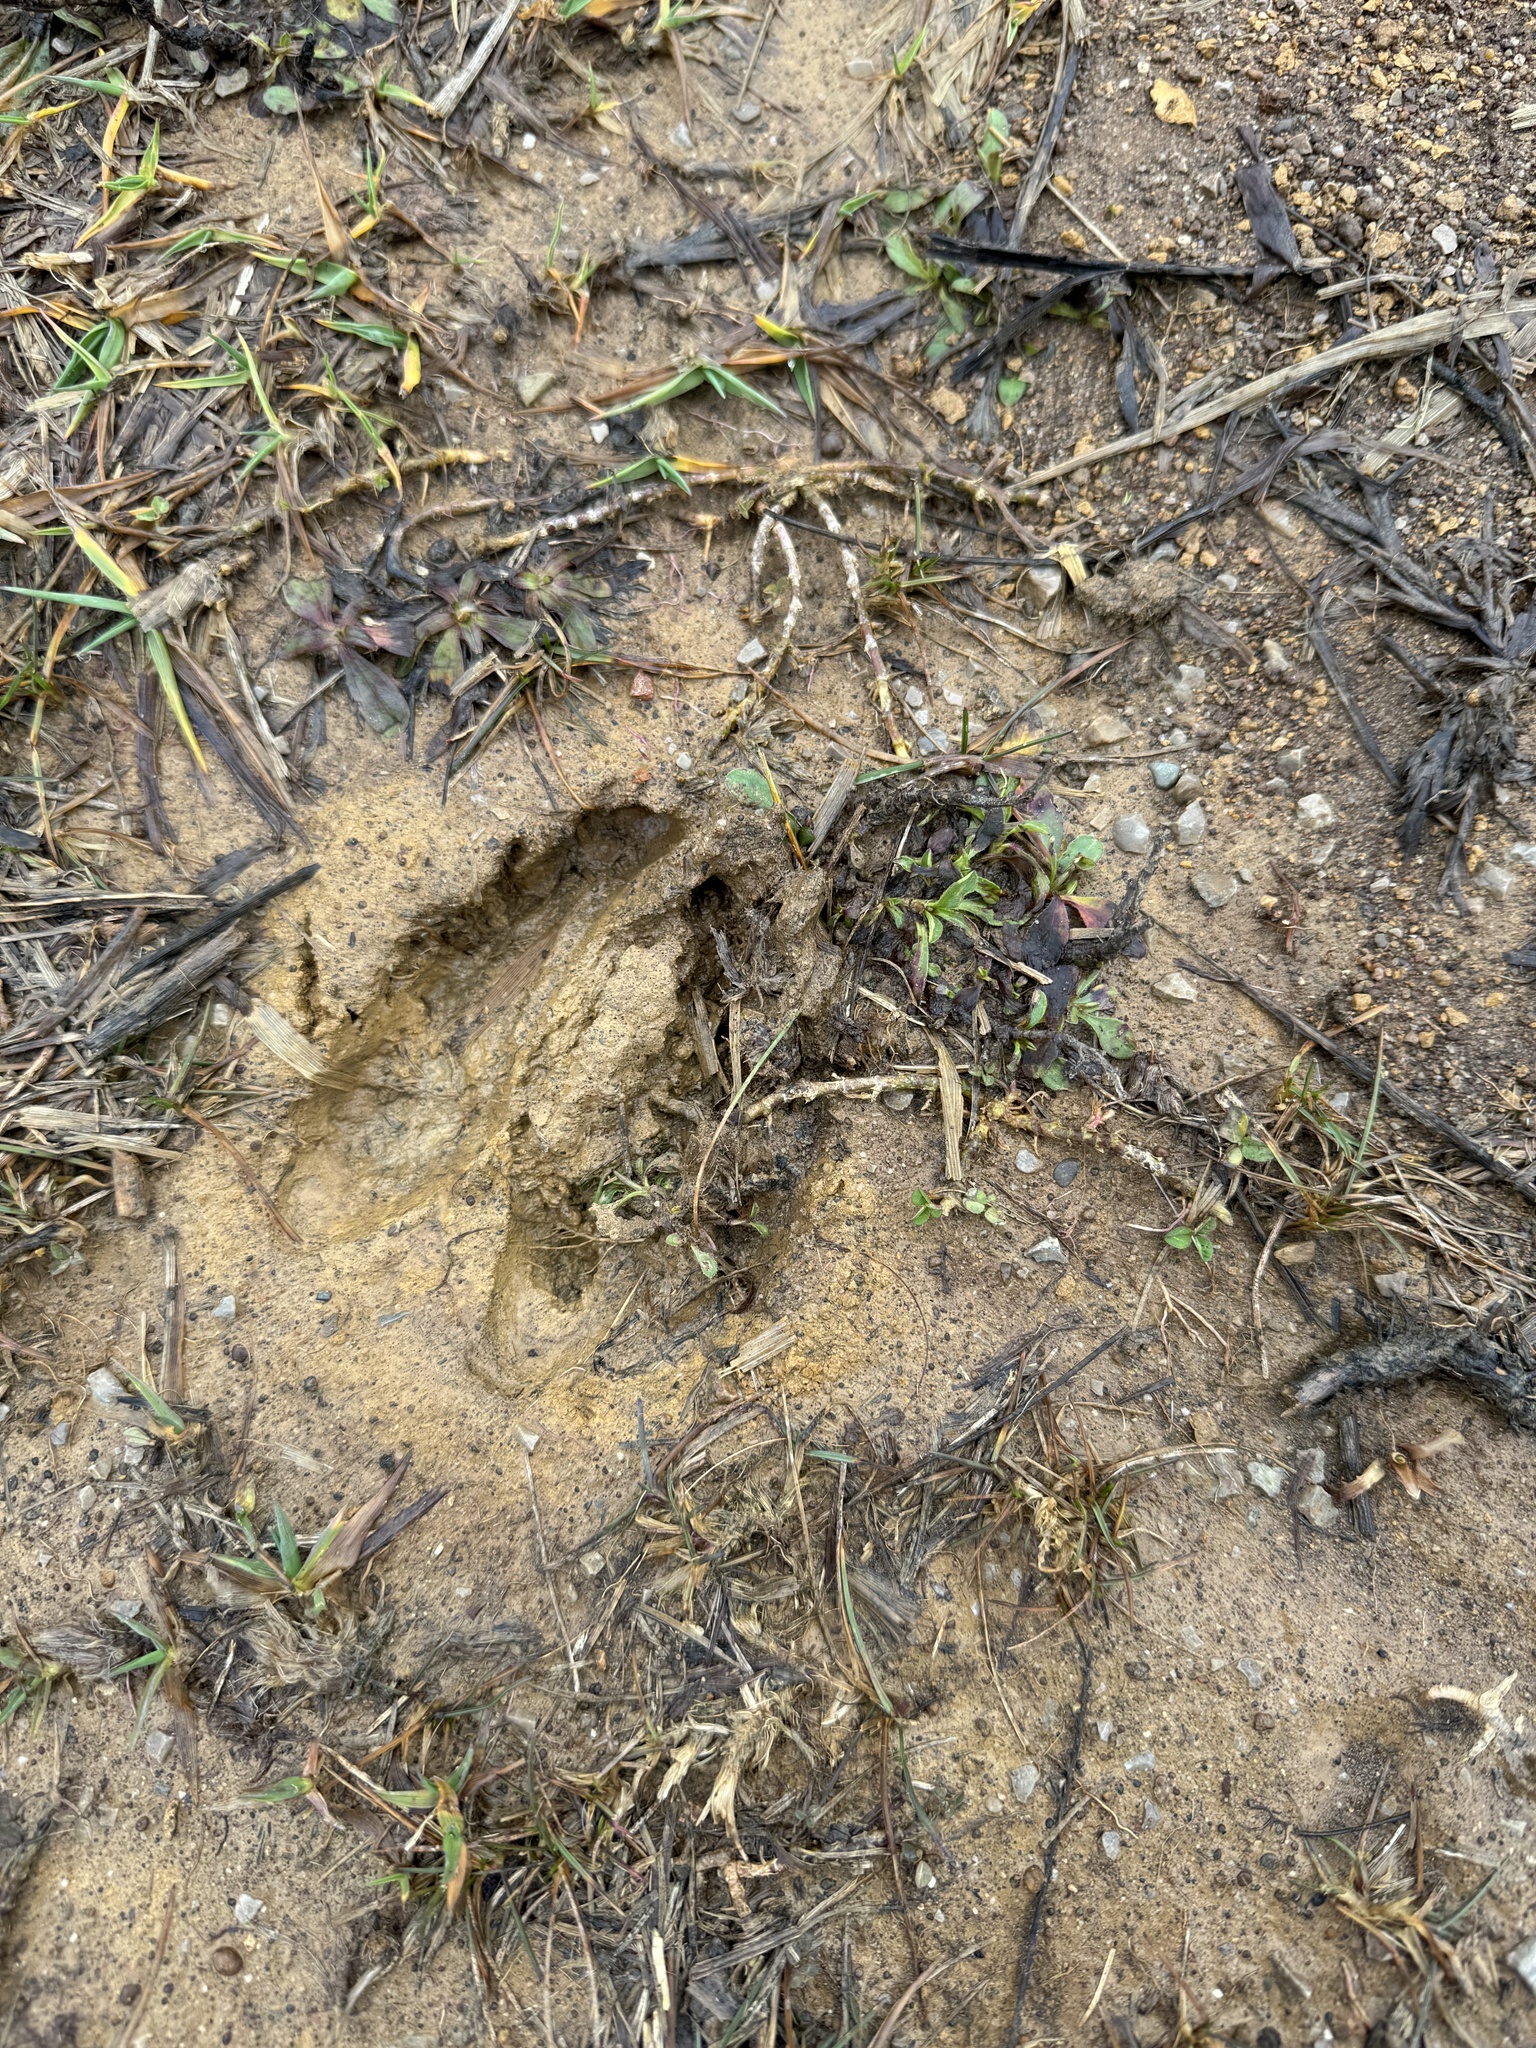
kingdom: Animalia
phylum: Chordata
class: Mammalia
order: Artiodactyla
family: Cervidae
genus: Odocoileus
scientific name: Odocoileus virginianus
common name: White-tailed deer
